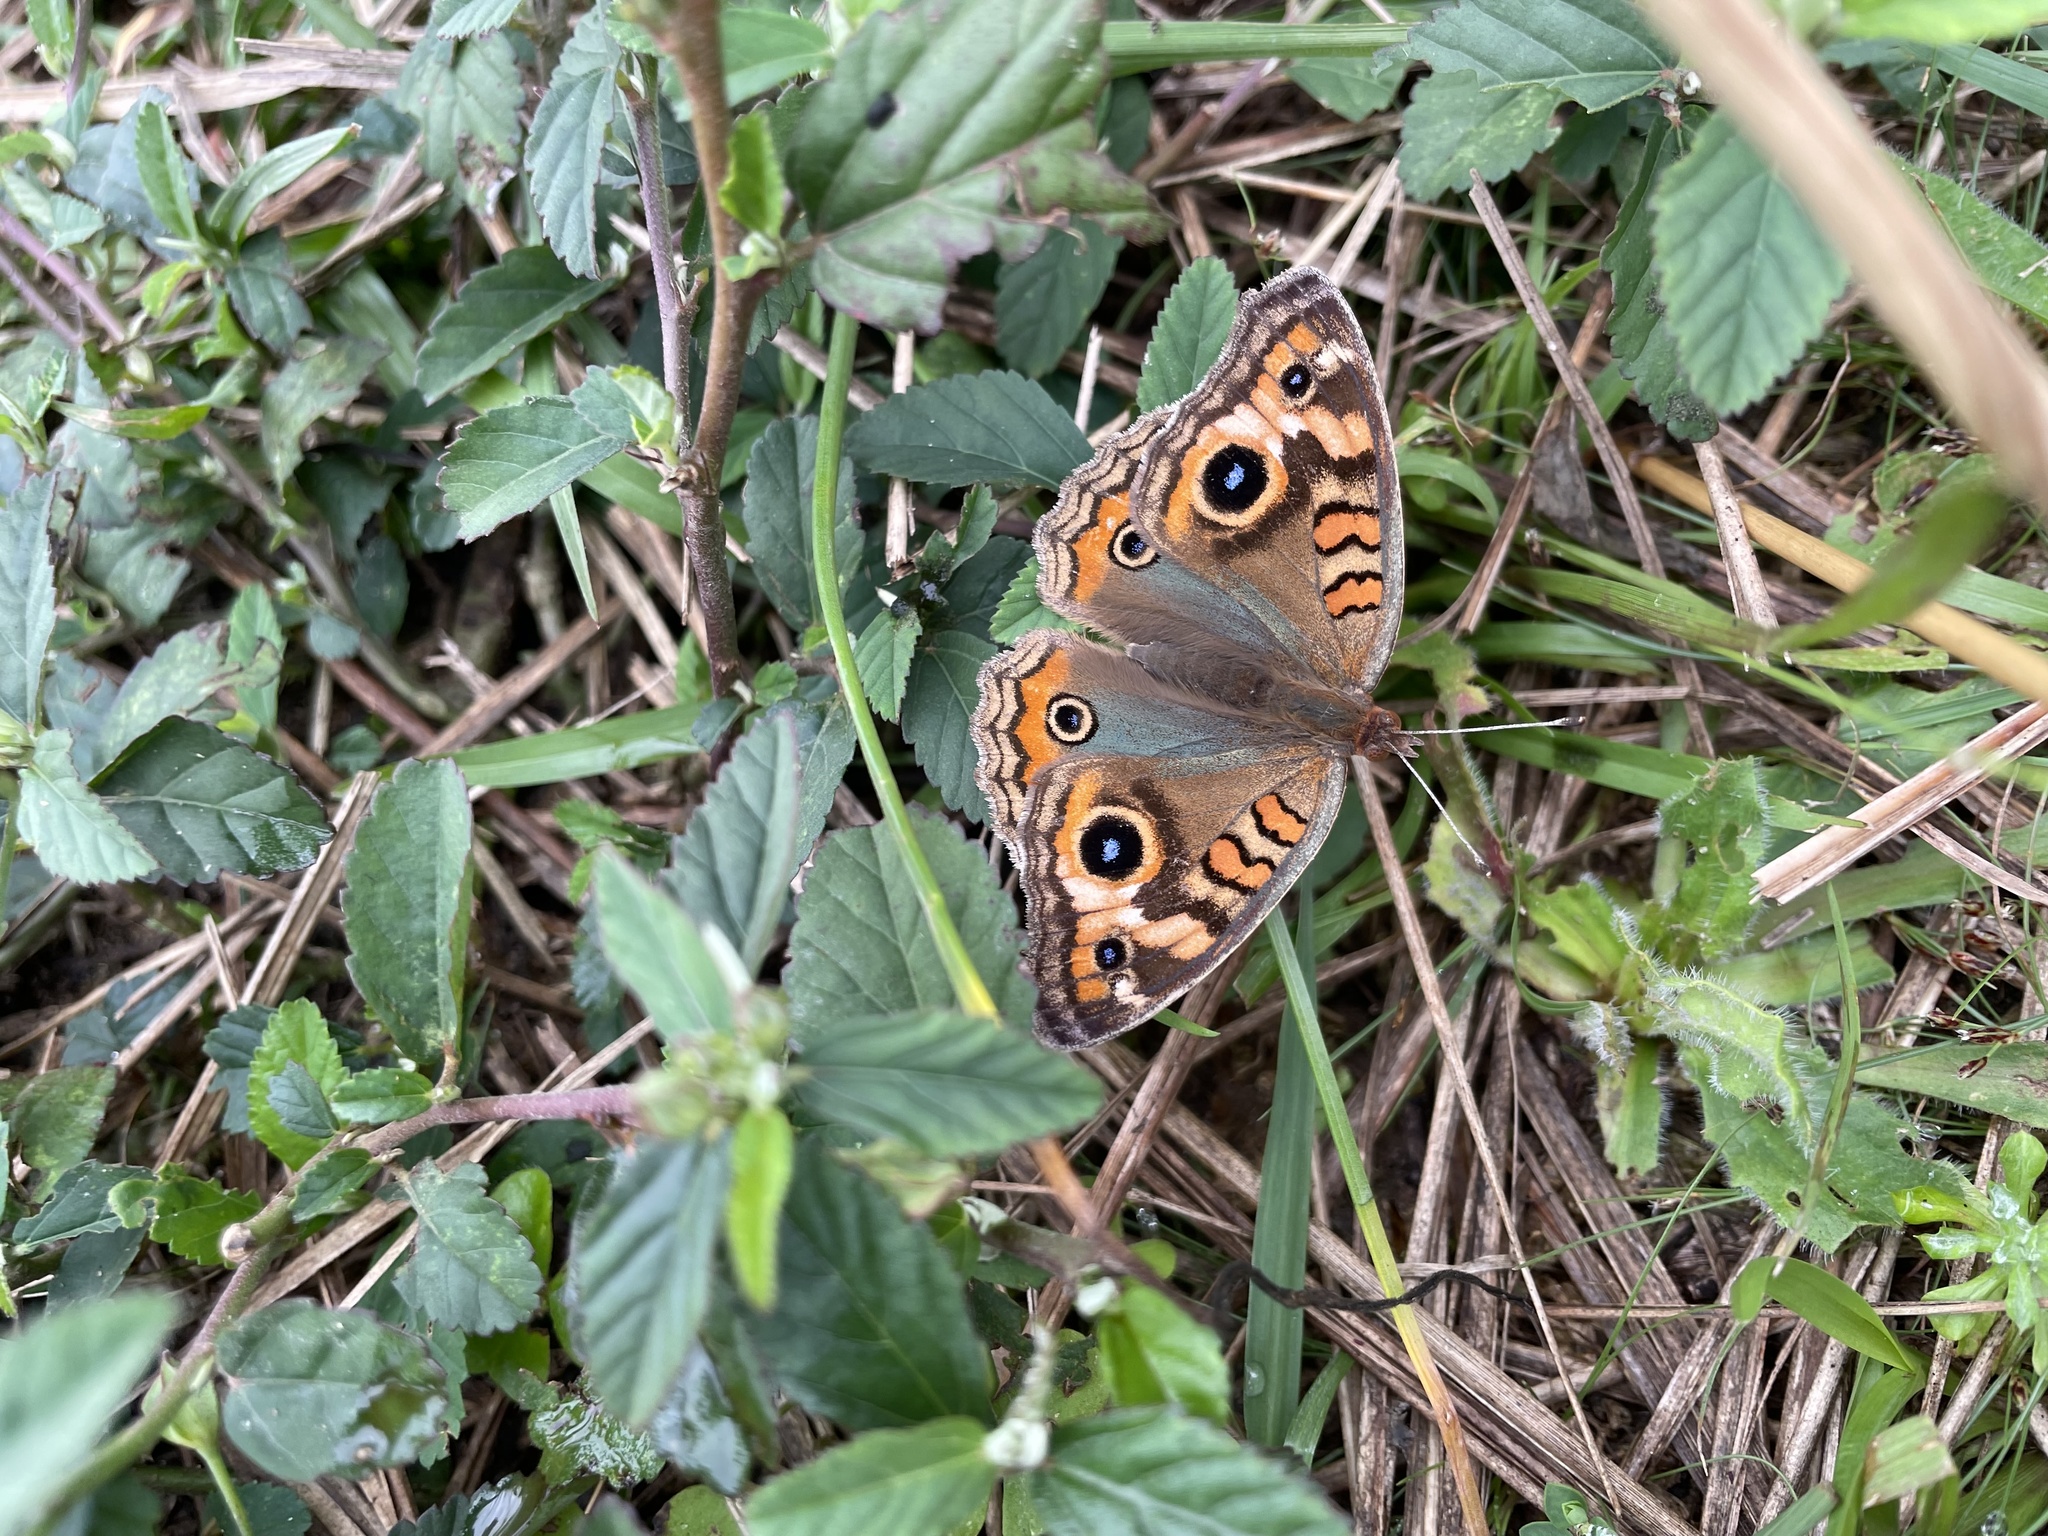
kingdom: Animalia
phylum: Arthropoda
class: Insecta
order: Lepidoptera
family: Nymphalidae
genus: Junonia
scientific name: Junonia lavinia
